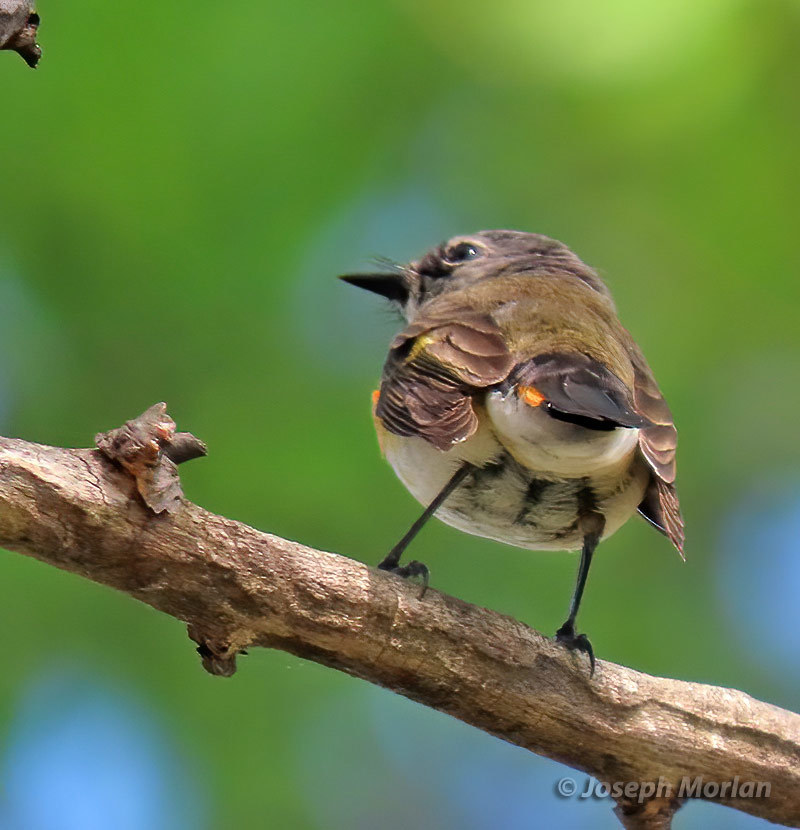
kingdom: Animalia
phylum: Chordata
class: Aves
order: Passeriformes
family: Parulidae
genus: Setophaga
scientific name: Setophaga ruticilla
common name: American redstart
